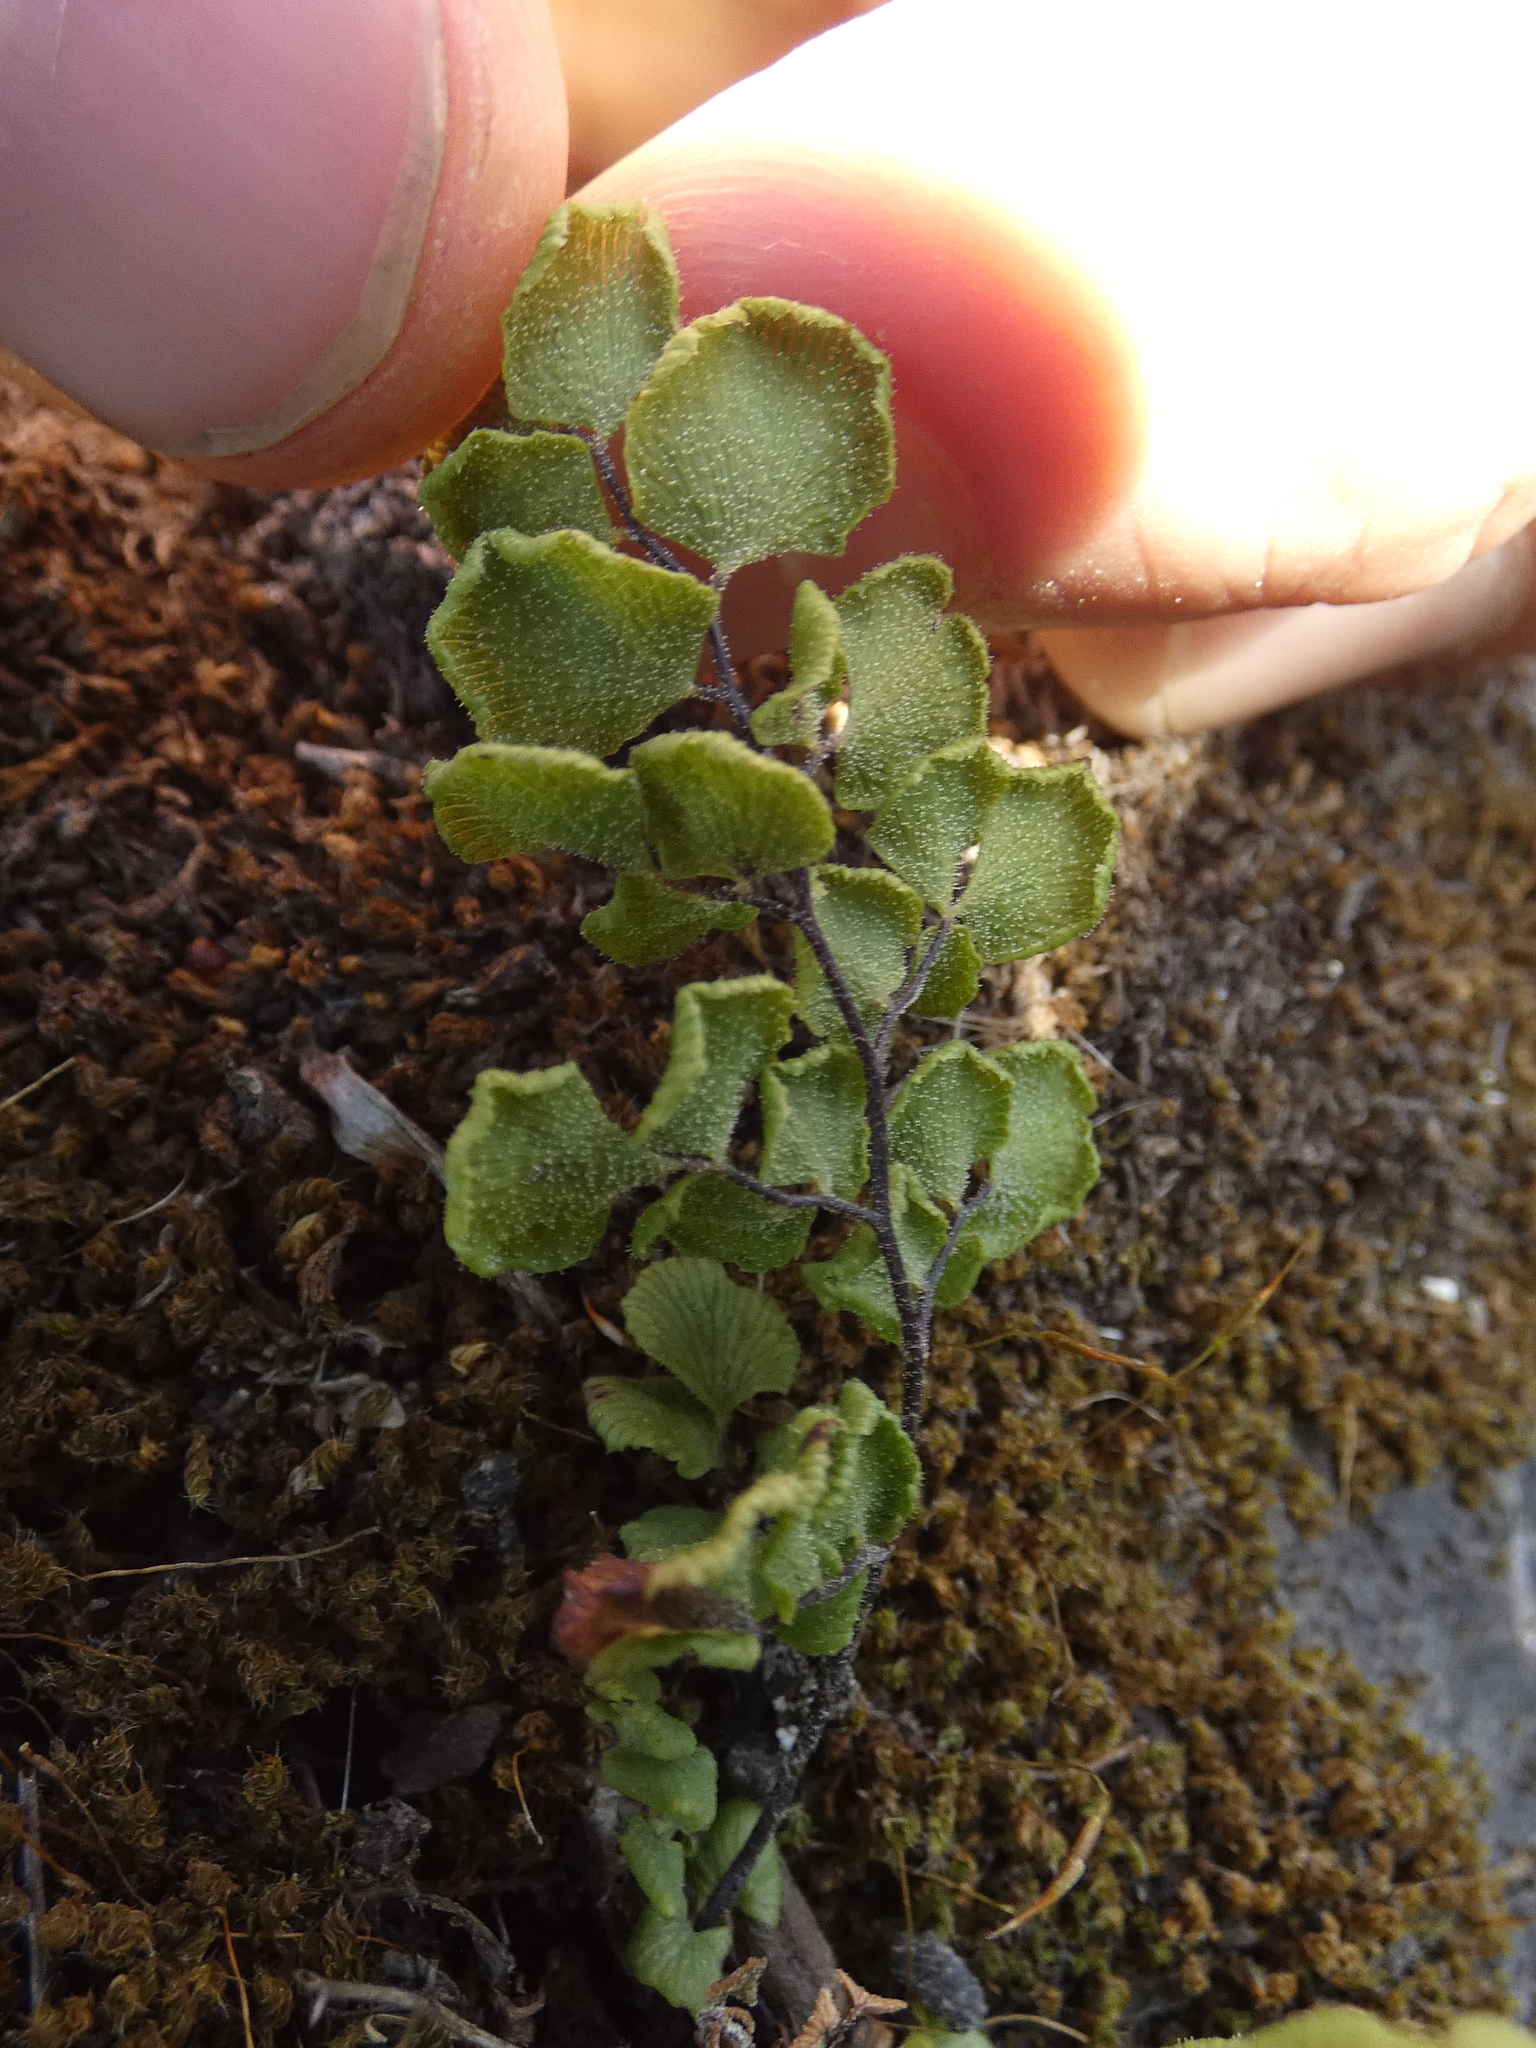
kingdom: Plantae
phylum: Tracheophyta
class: Polypodiopsida
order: Polypodiales
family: Pteridaceae
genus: Adiantum
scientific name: Adiantum chilense
